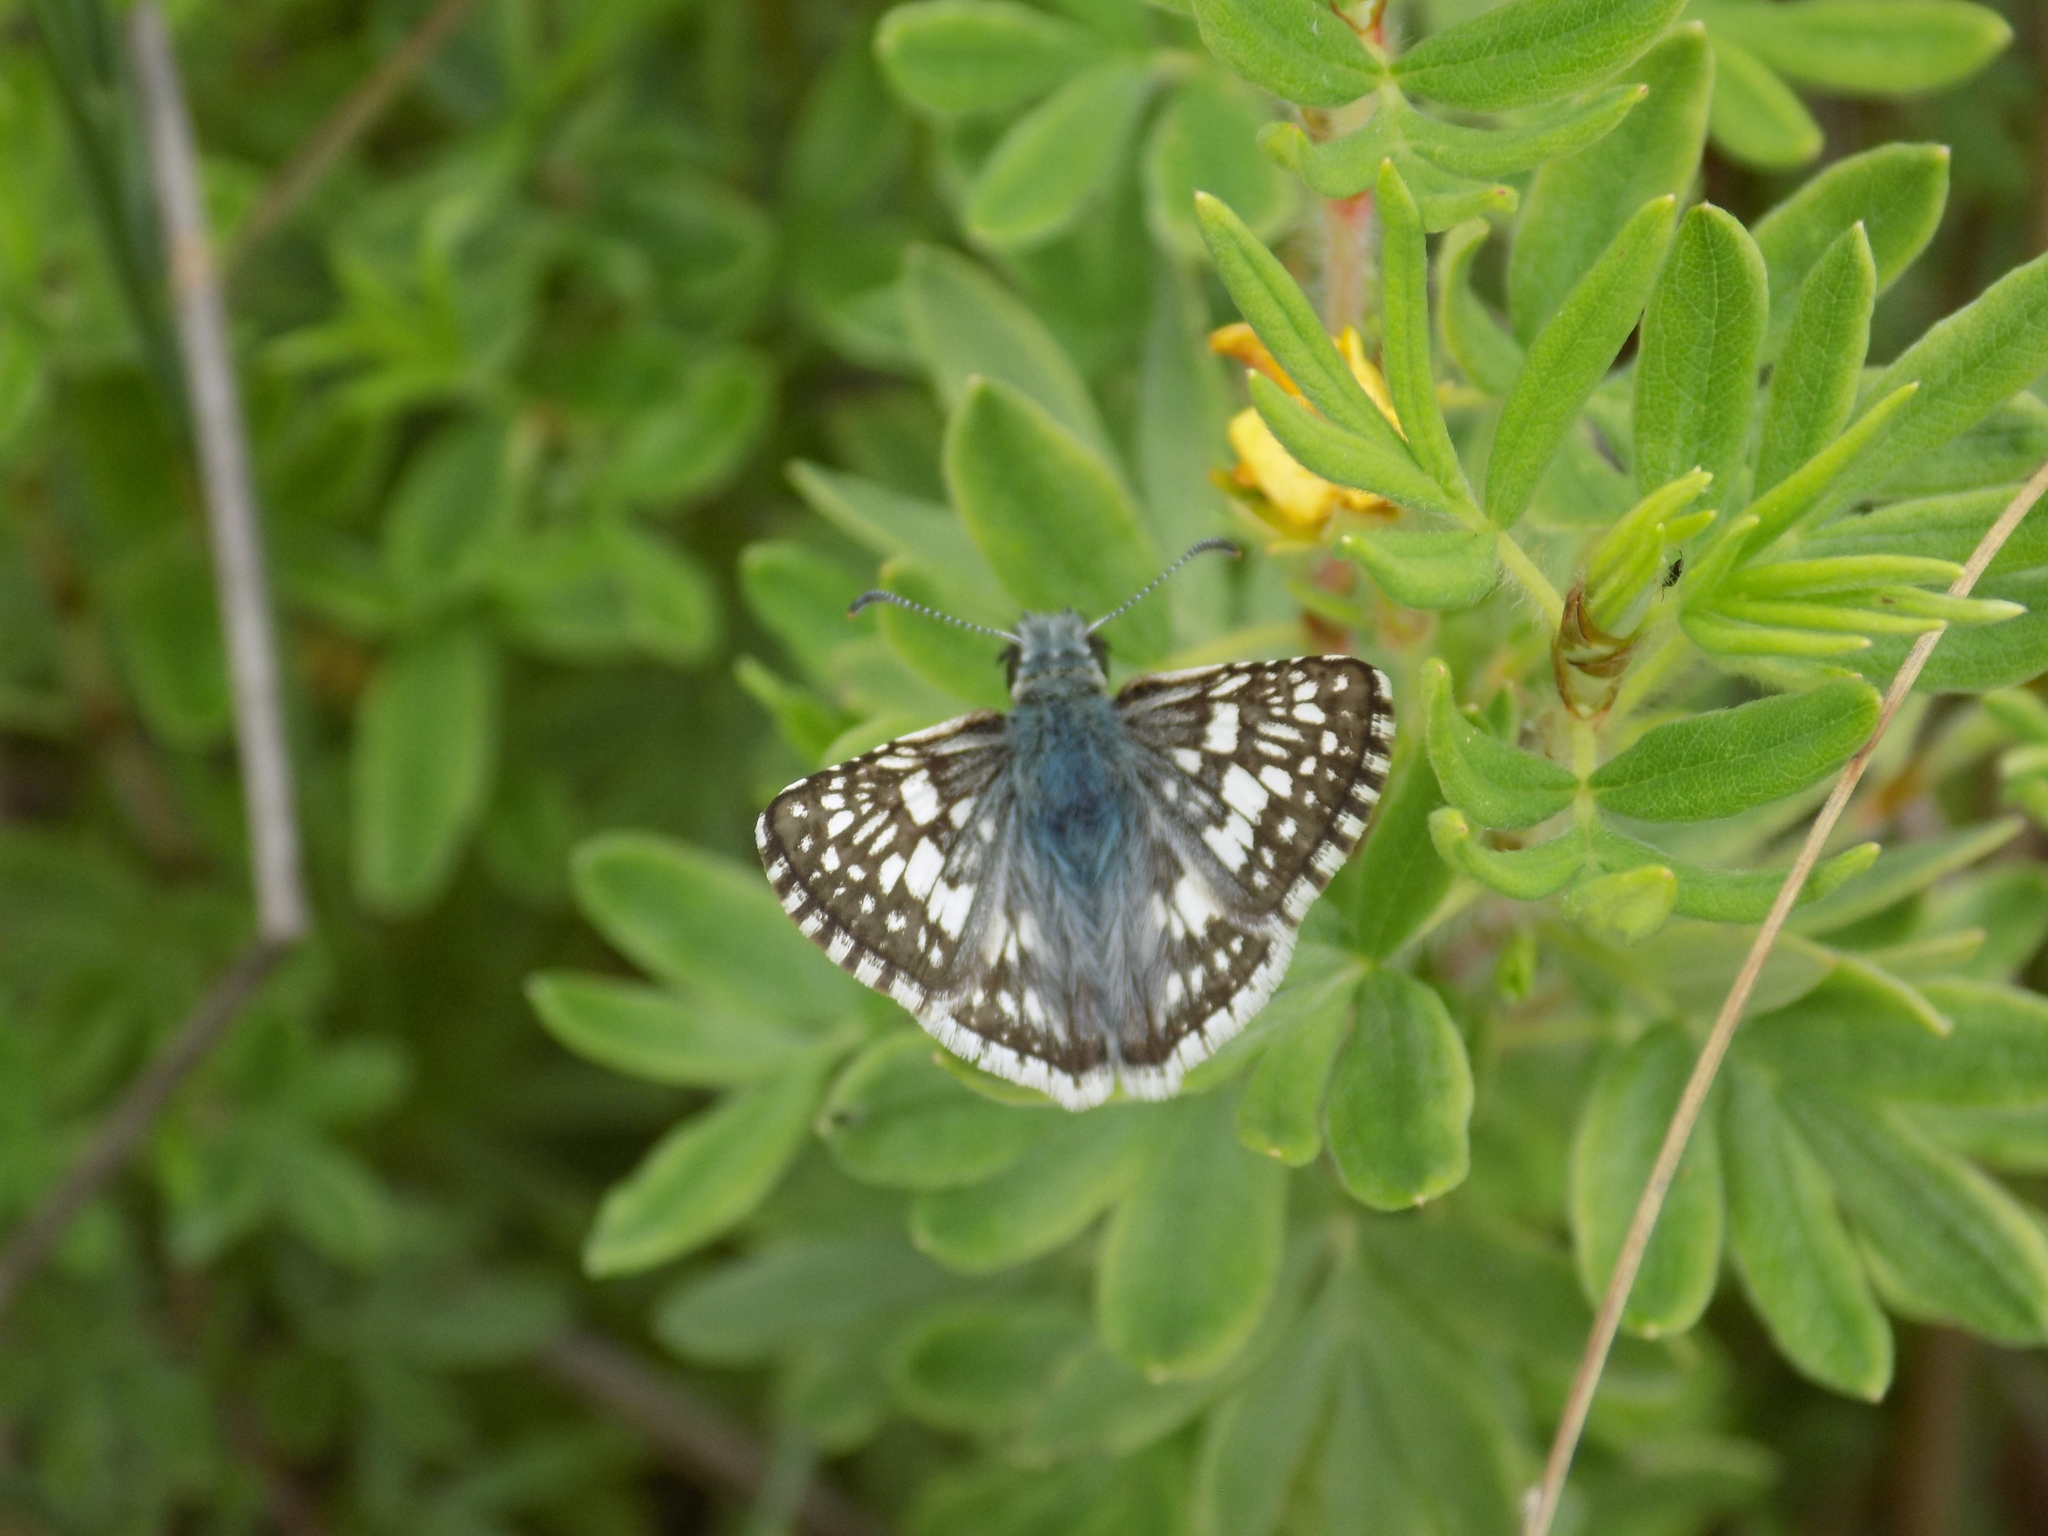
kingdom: Animalia
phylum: Arthropoda
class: Insecta
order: Lepidoptera
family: Hesperiidae
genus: Burnsius
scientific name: Burnsius communis
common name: Common checkered-skipper
